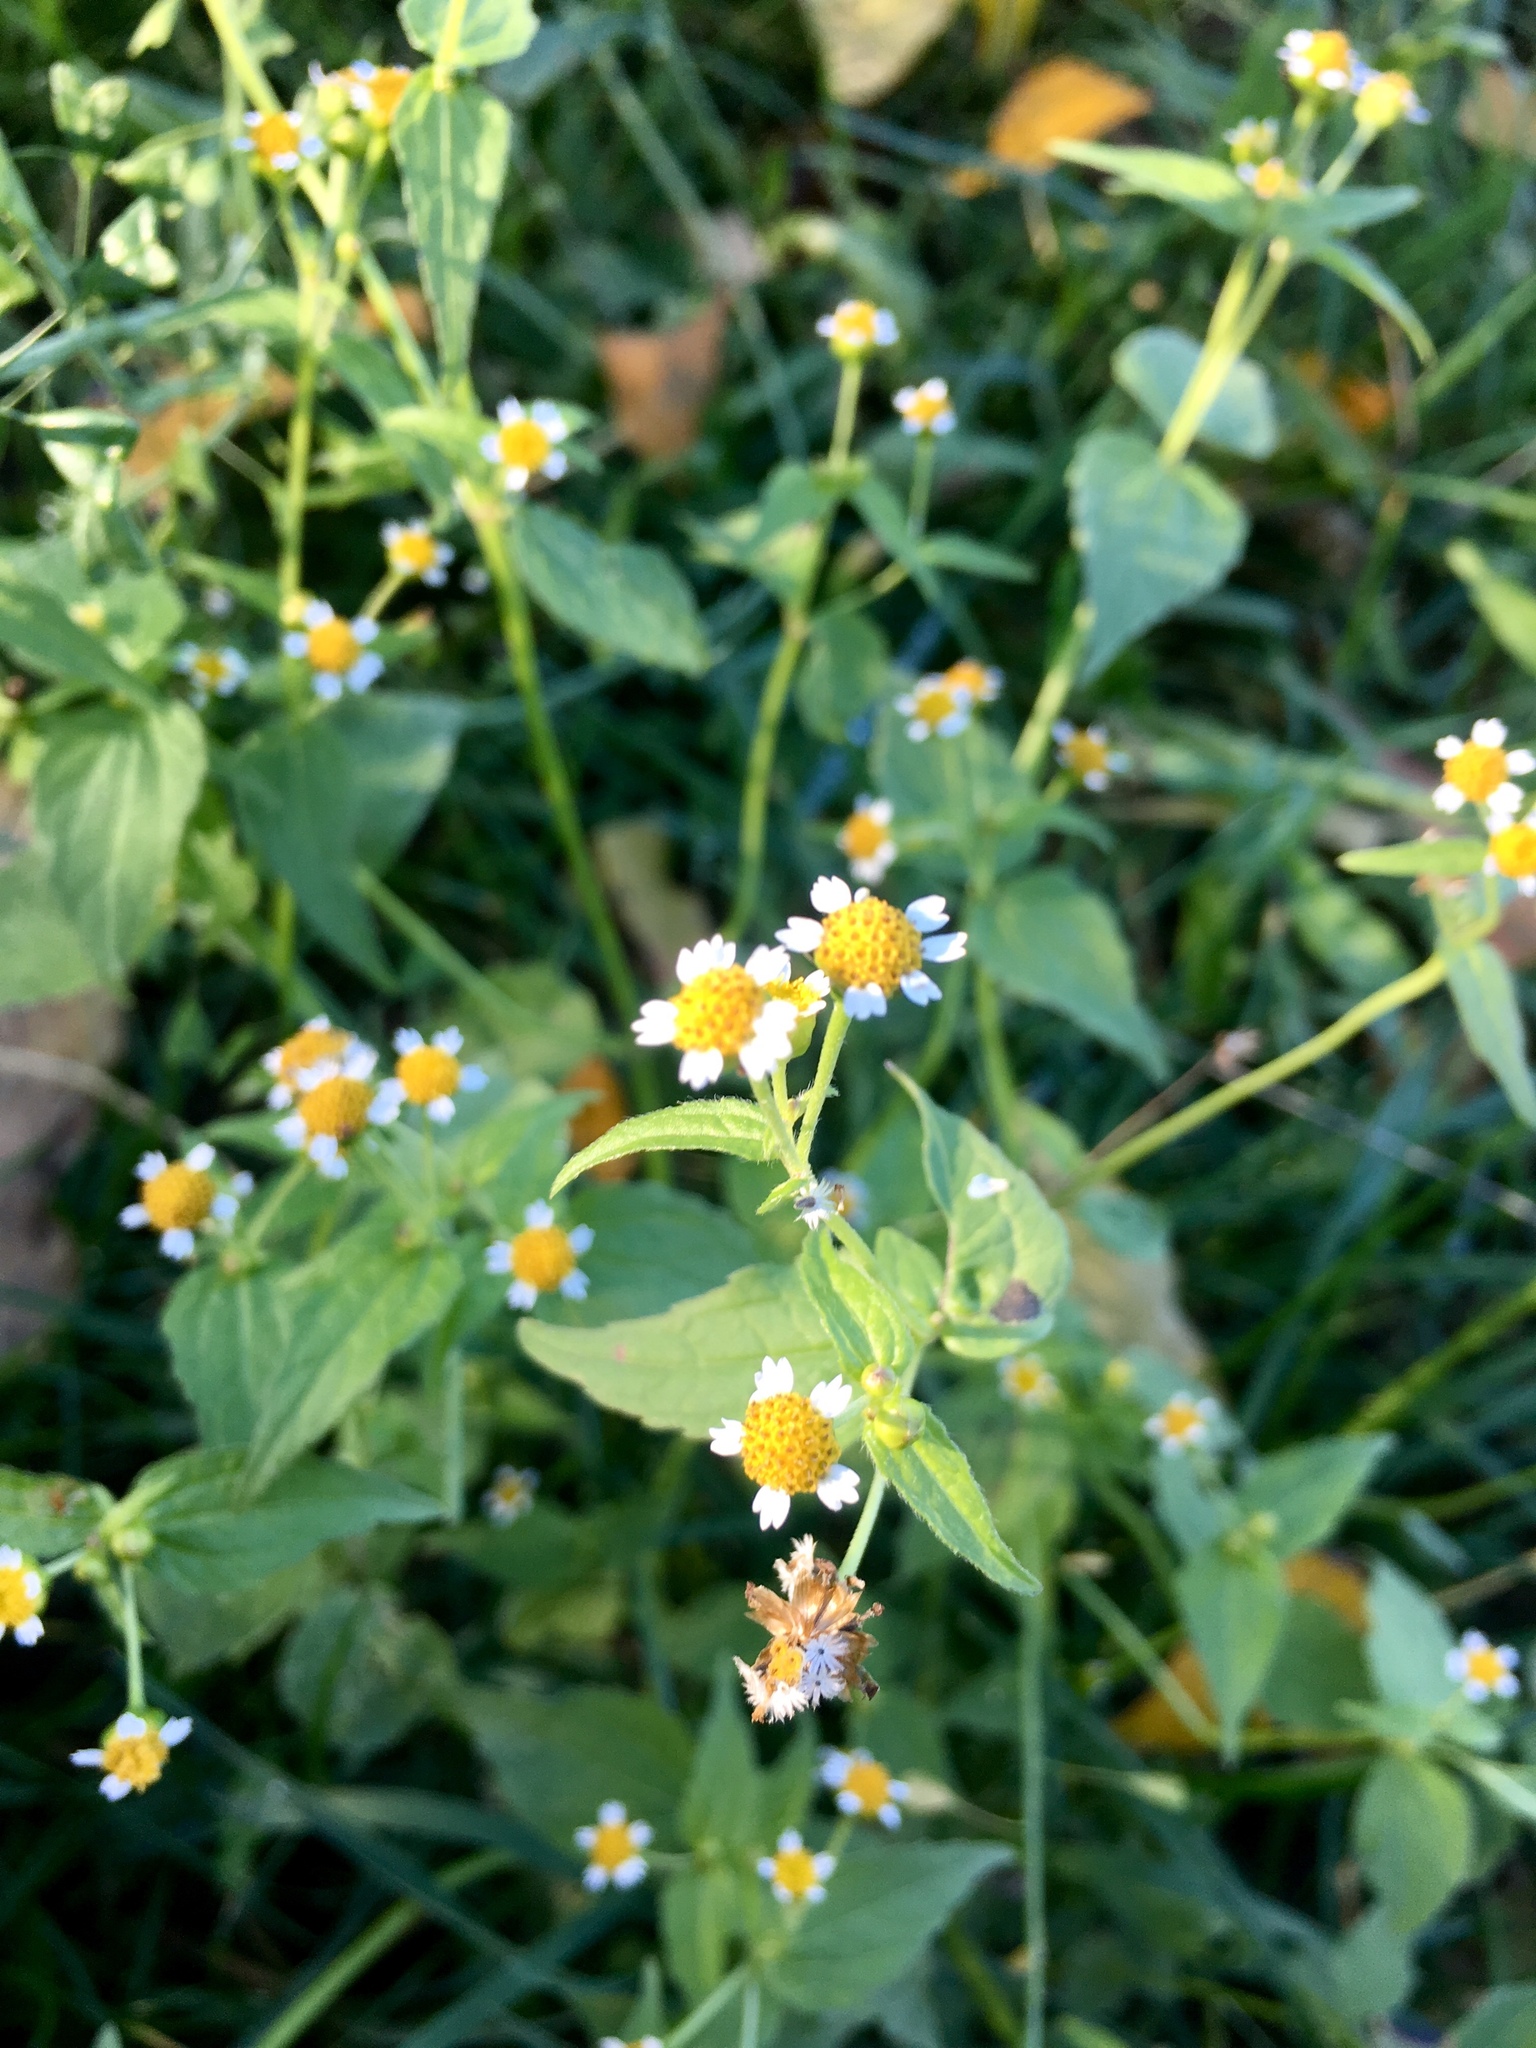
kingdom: Plantae
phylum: Tracheophyta
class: Magnoliopsida
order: Asterales
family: Asteraceae
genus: Galinsoga
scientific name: Galinsoga quadriradiata
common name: Shaggy soldier
